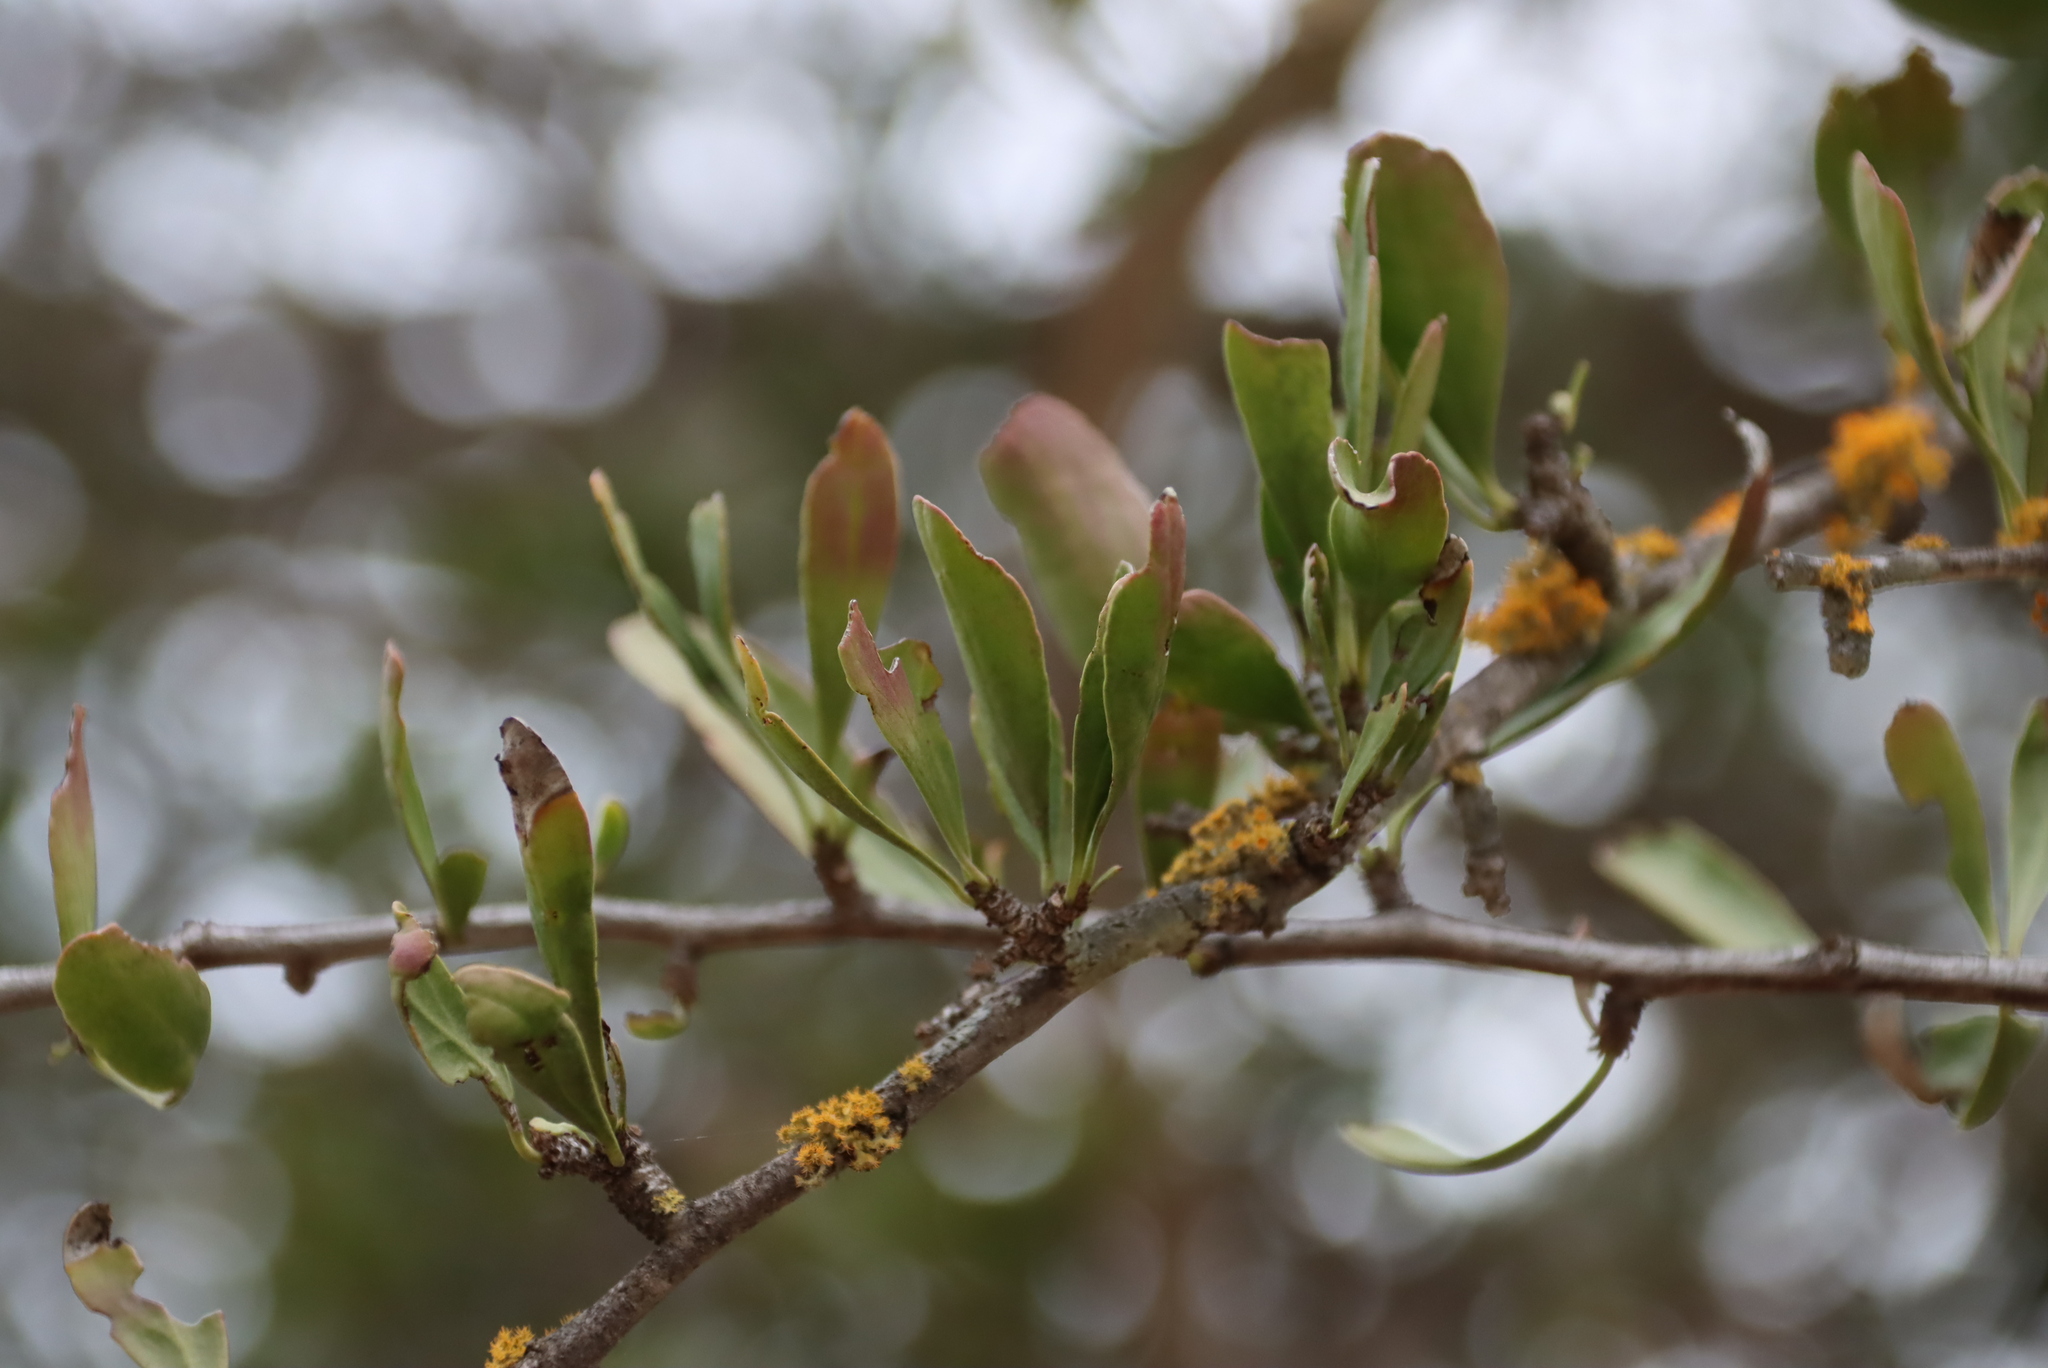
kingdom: Plantae
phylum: Tracheophyta
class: Magnoliopsida
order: Boraginales
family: Ehretiaceae
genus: Ehretia
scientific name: Ehretia rigida
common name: Cape lilac
